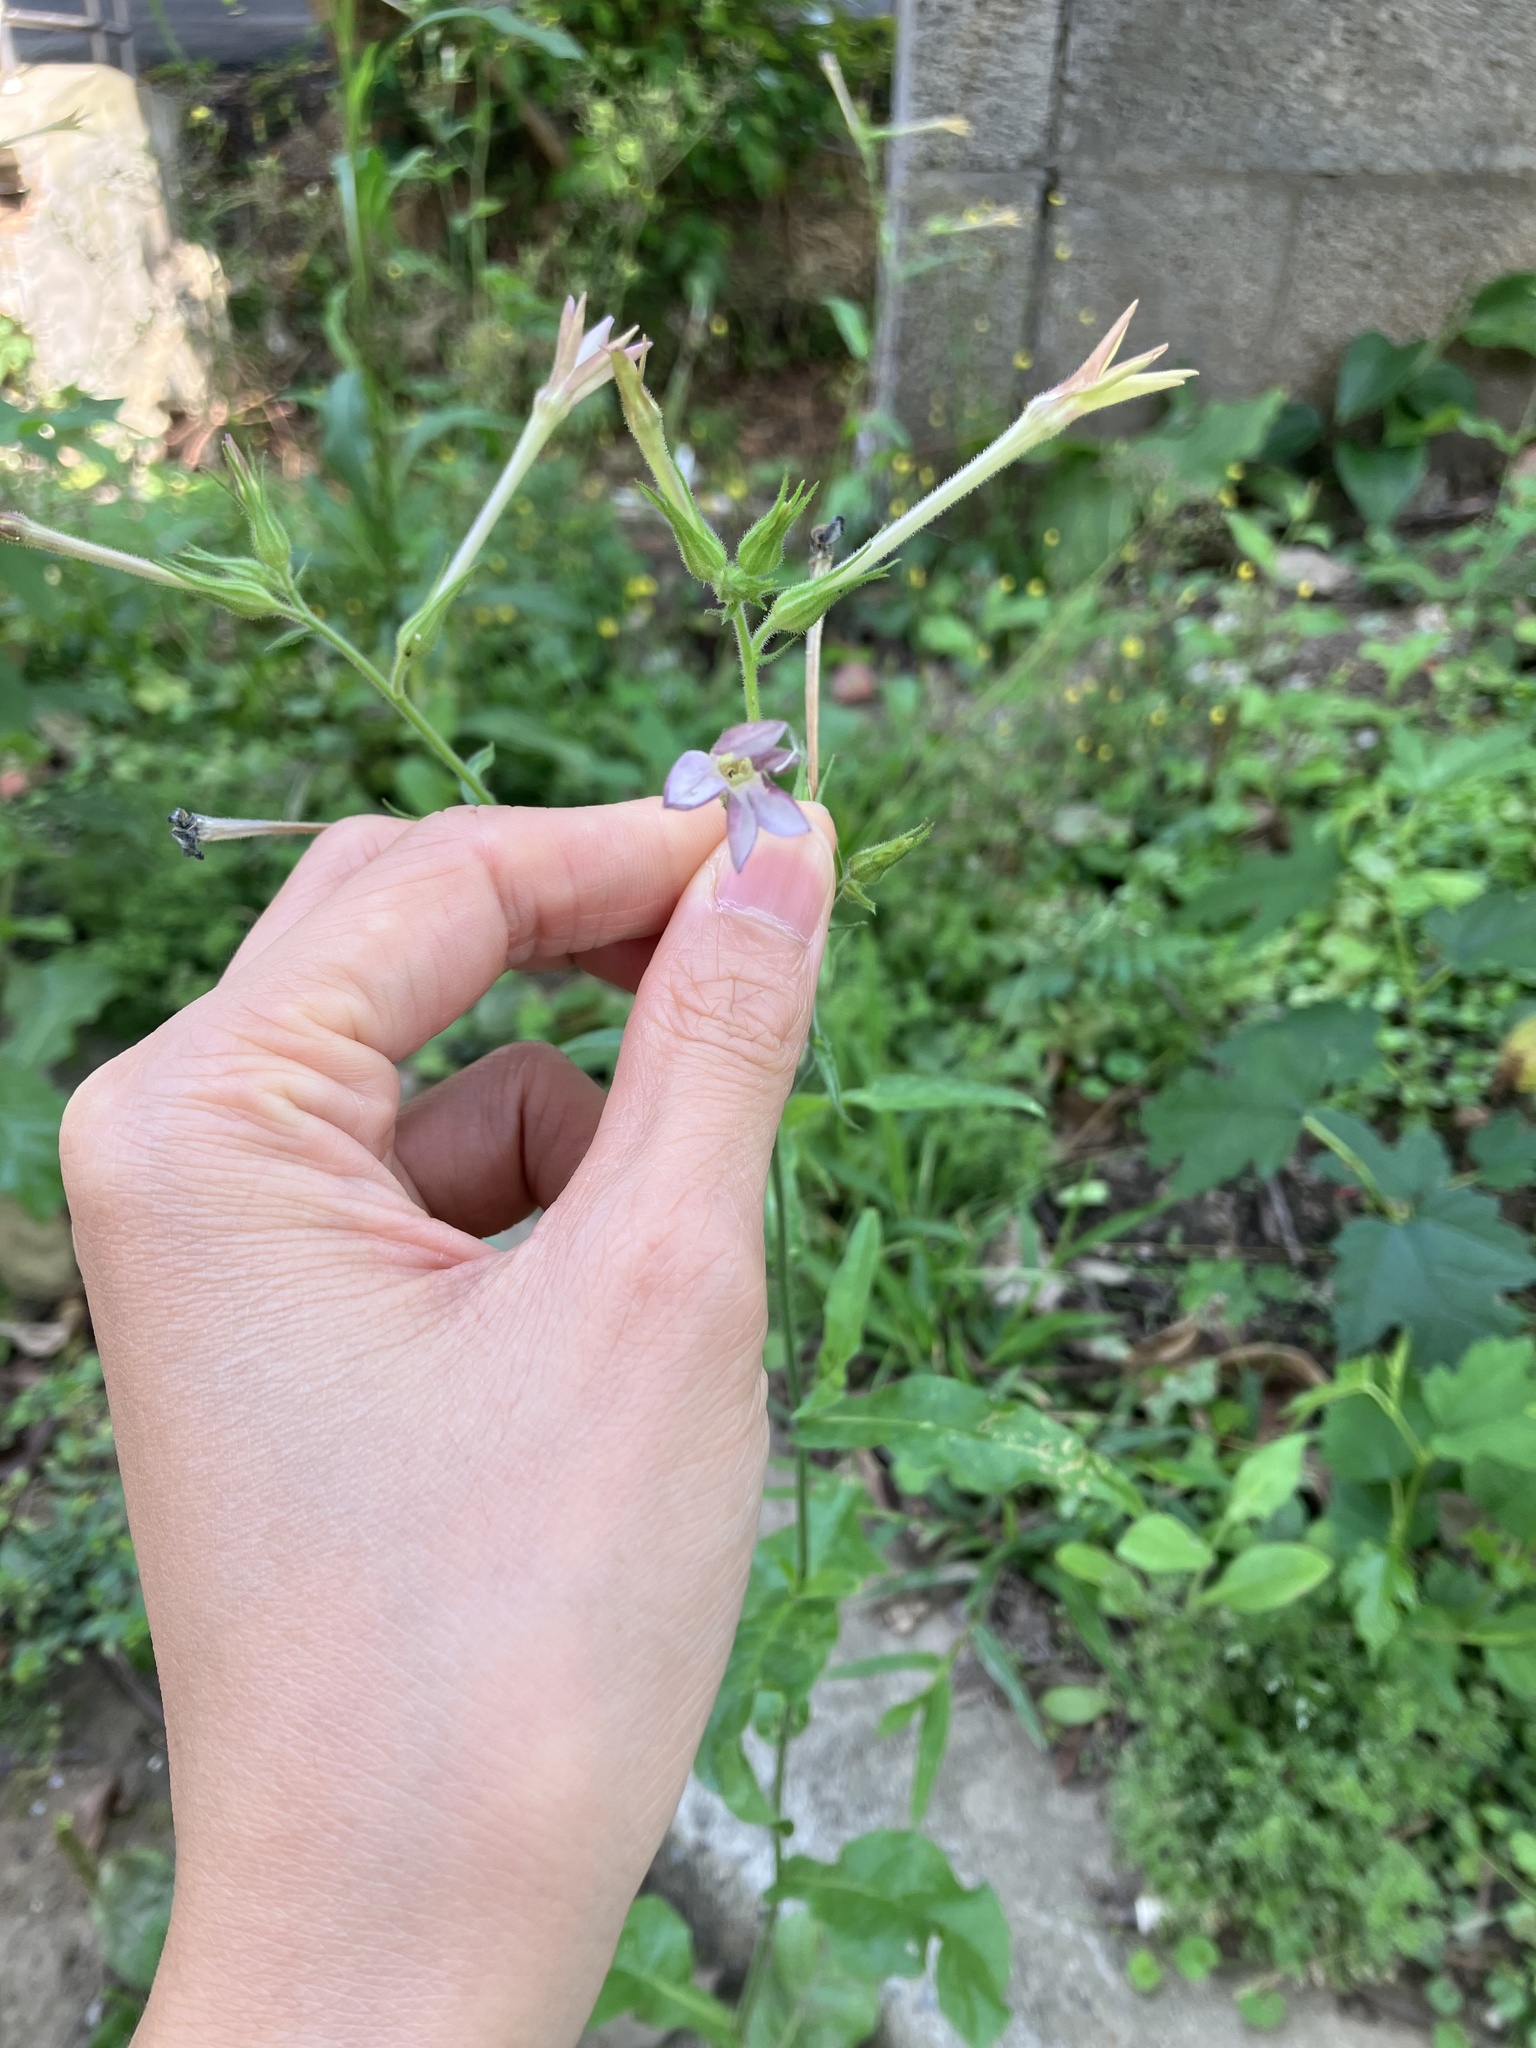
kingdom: Plantae
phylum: Tracheophyta
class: Magnoliopsida
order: Solanales
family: Solanaceae
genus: Nicotiana
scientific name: Nicotiana plumbaginifolia
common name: Tex-mex tobacco
